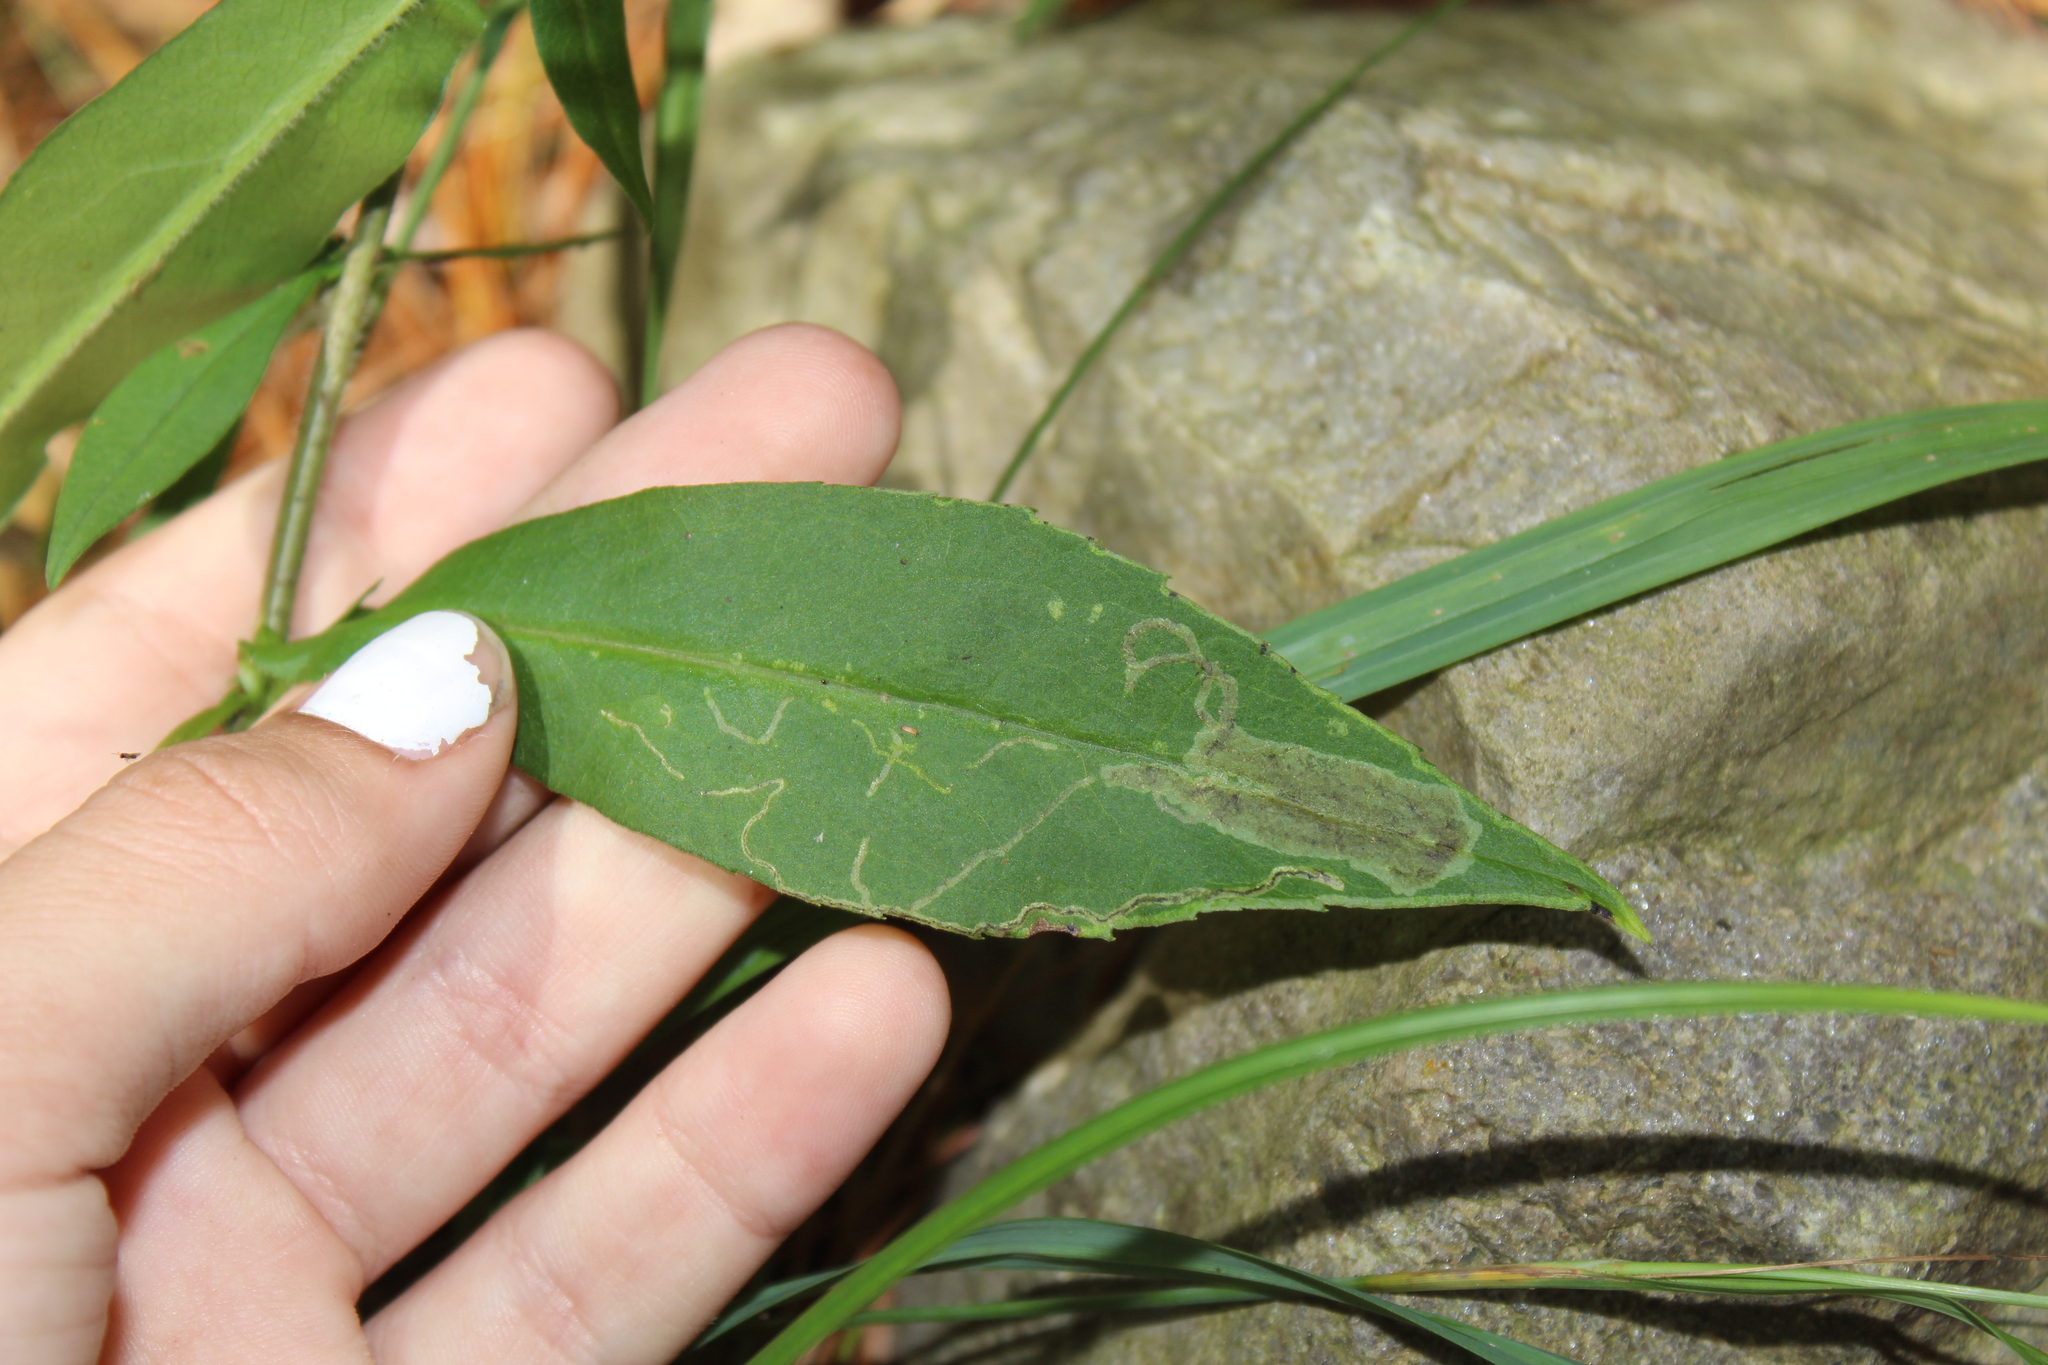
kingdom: Animalia
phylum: Arthropoda
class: Insecta
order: Diptera
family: Agromyzidae
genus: Ophiomyia
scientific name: Ophiomyia carolinensis
